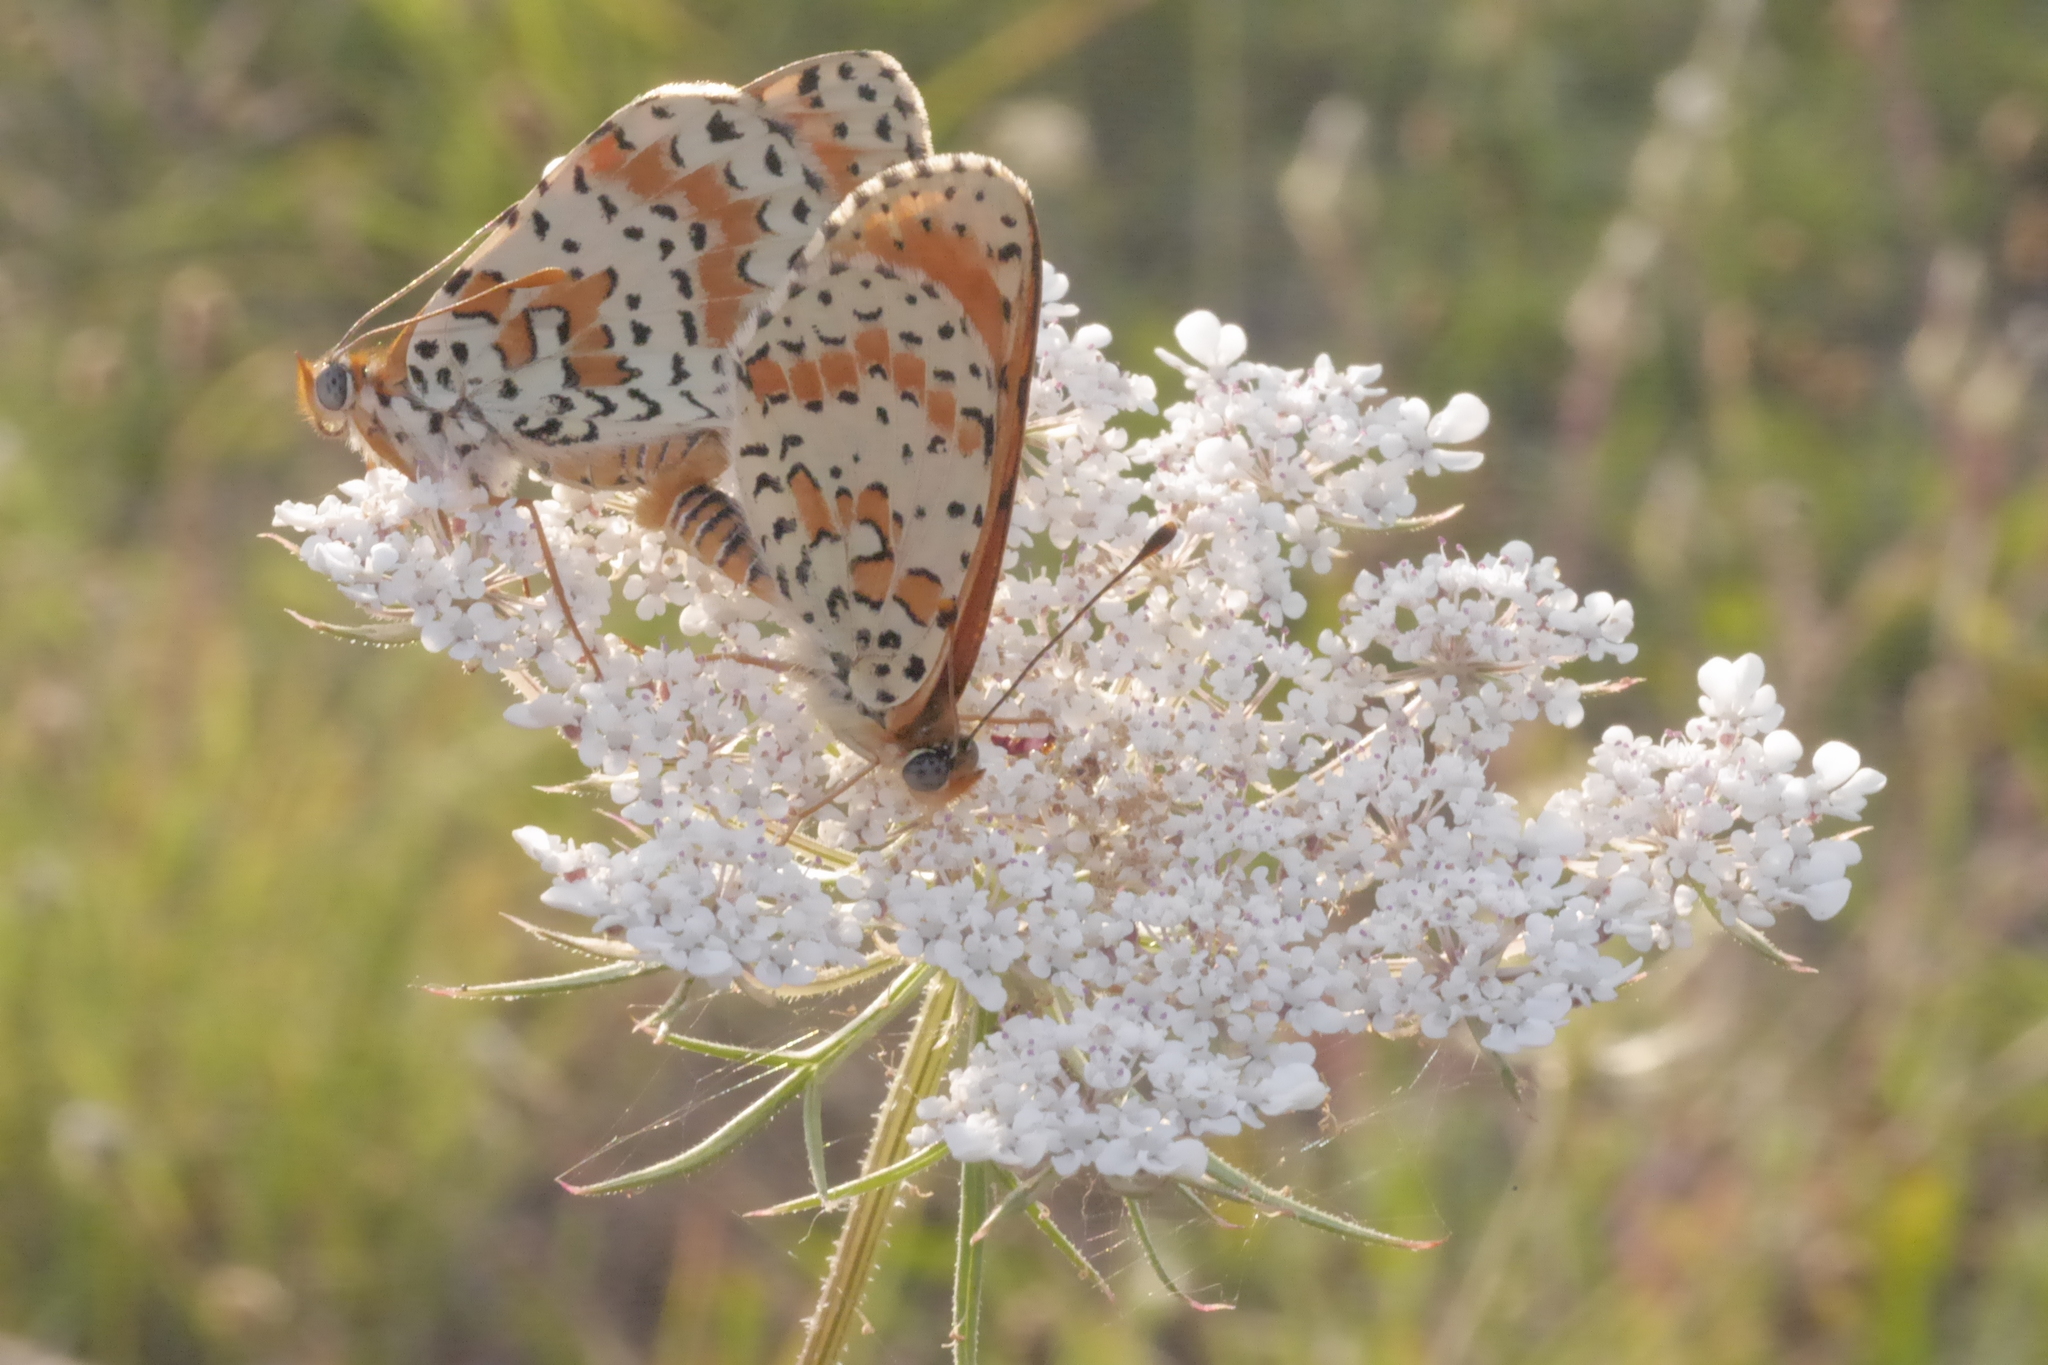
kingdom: Animalia
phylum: Arthropoda
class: Insecta
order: Lepidoptera
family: Nymphalidae
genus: Melitaea
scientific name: Melitaea didyma
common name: Spotted fritillary
